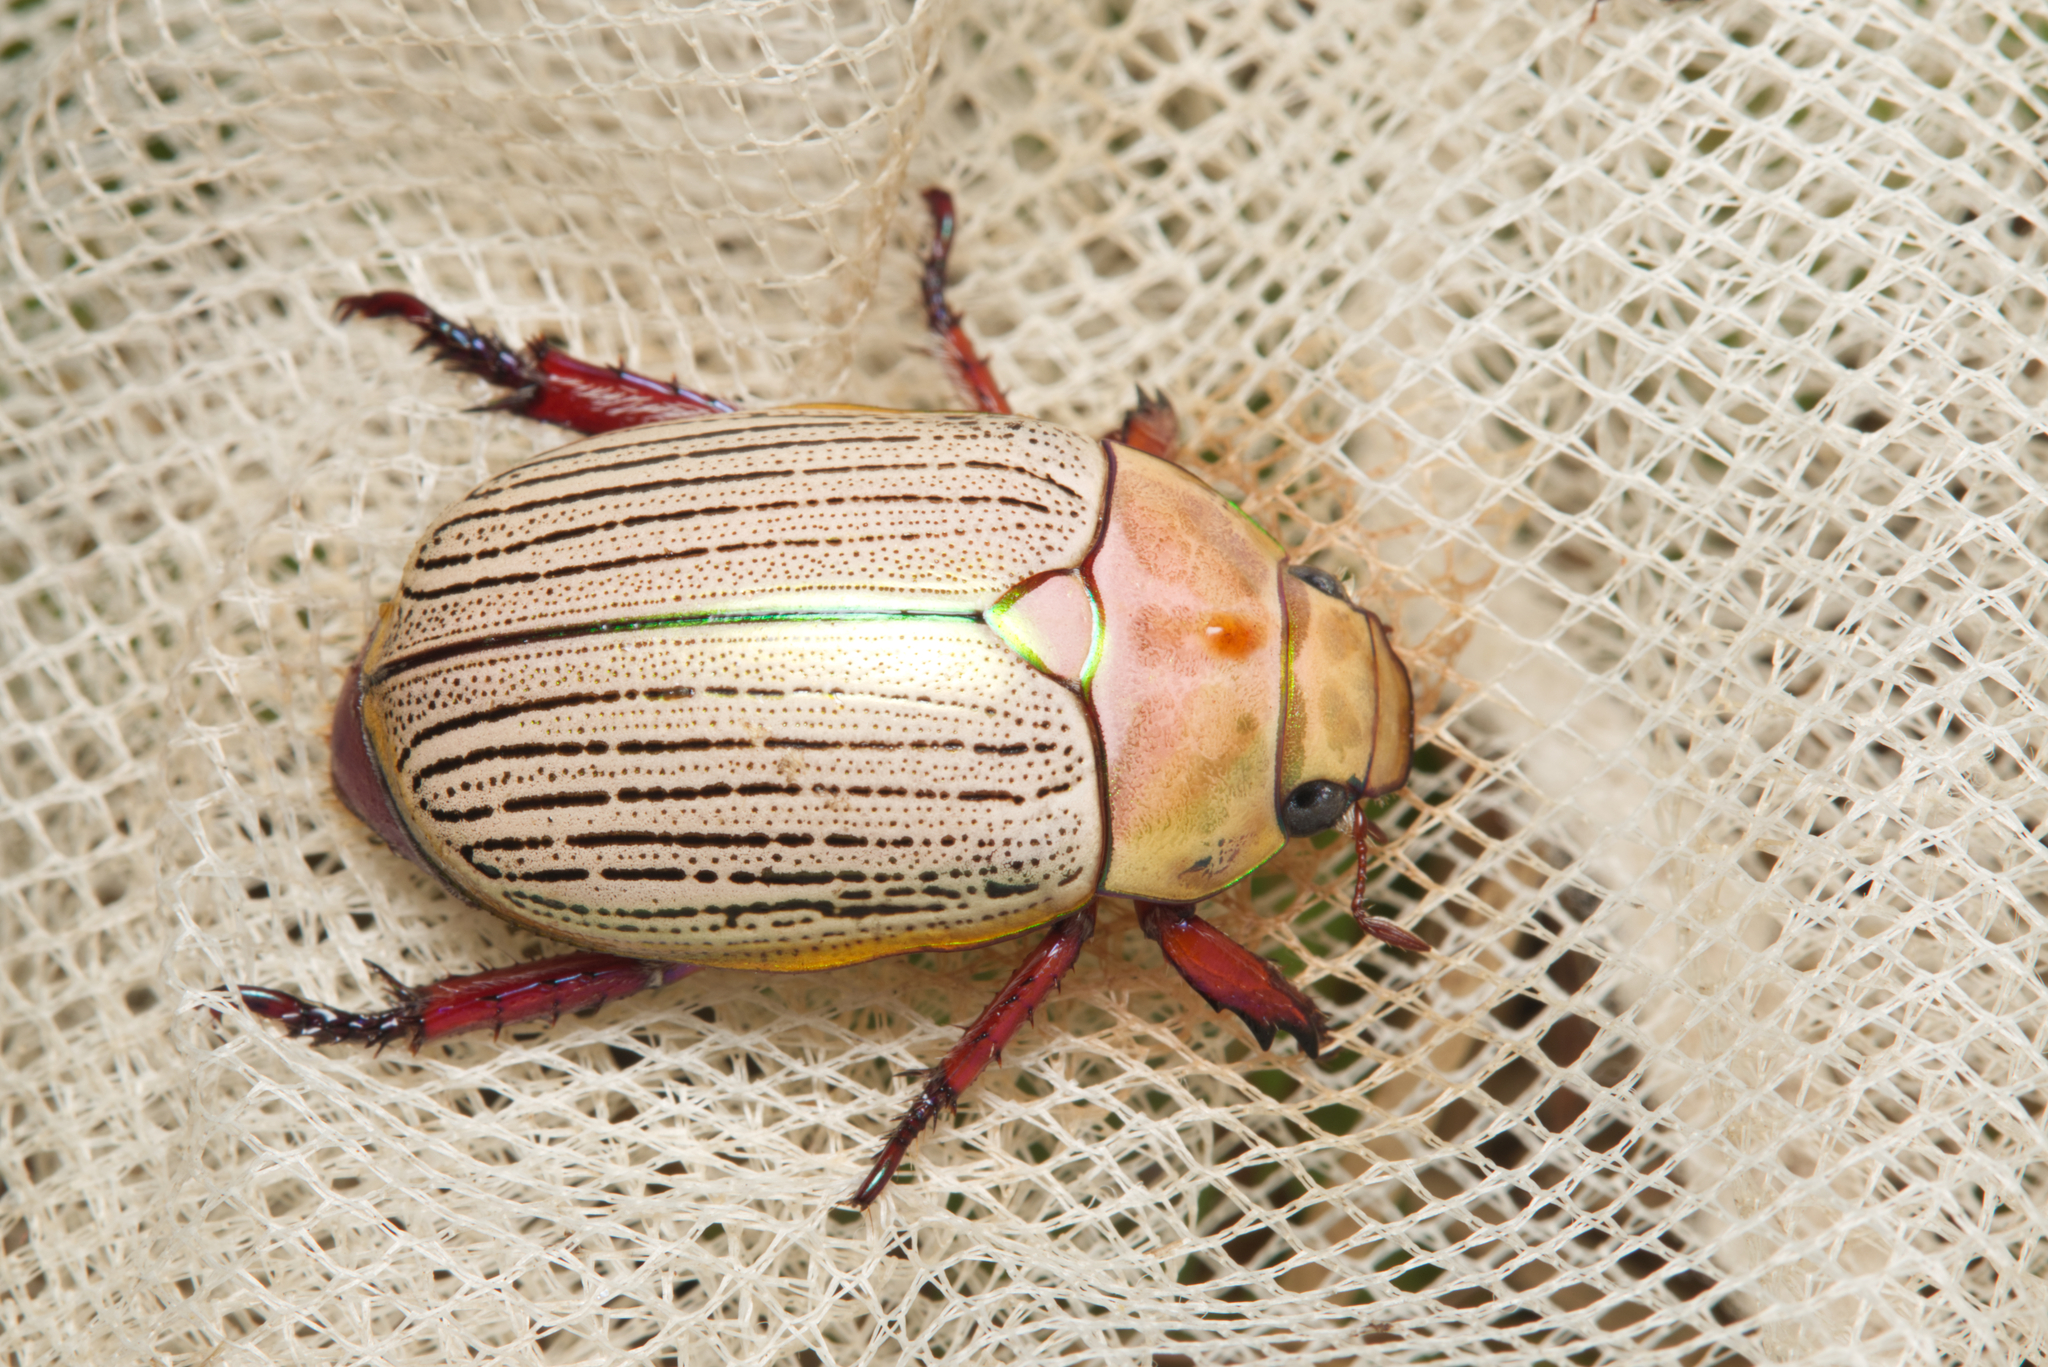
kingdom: Animalia
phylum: Arthropoda
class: Insecta
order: Coleoptera
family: Scarabaeidae
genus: Anoplognathus
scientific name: Anoplognathus boisduvali
